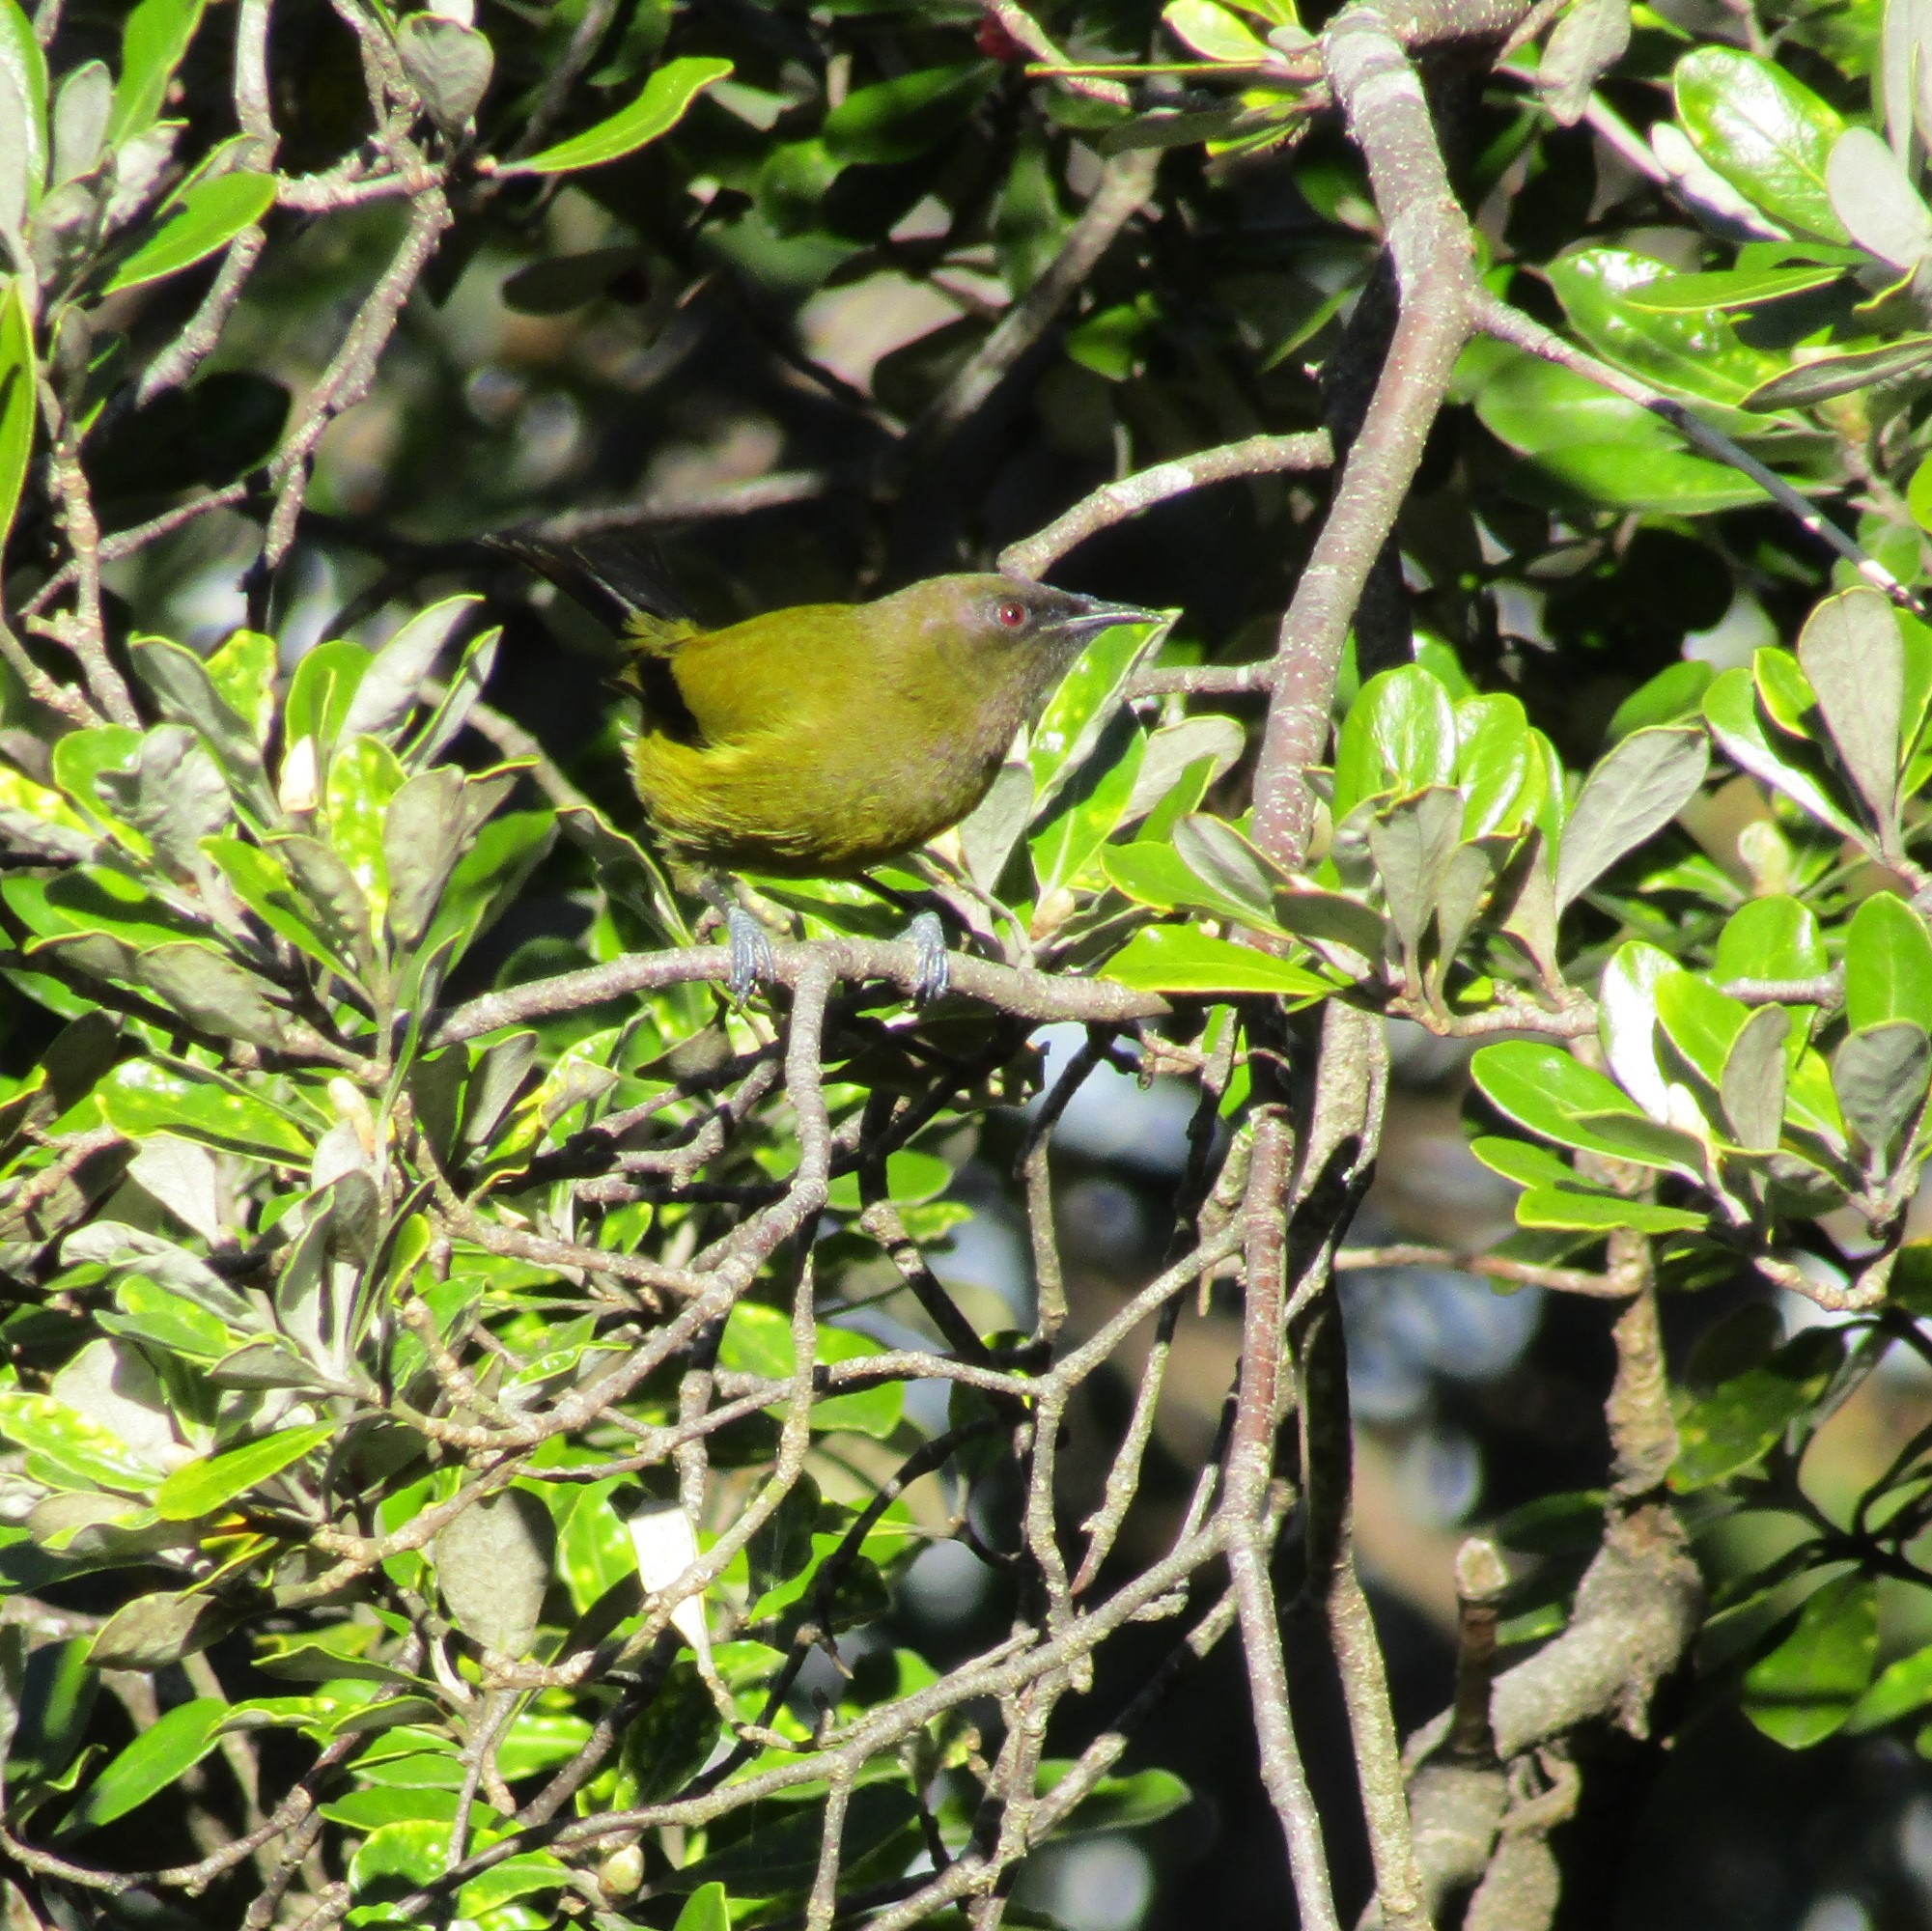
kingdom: Animalia
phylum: Chordata
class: Aves
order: Passeriformes
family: Meliphagidae
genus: Anthornis
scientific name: Anthornis melanura
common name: New zealand bellbird
